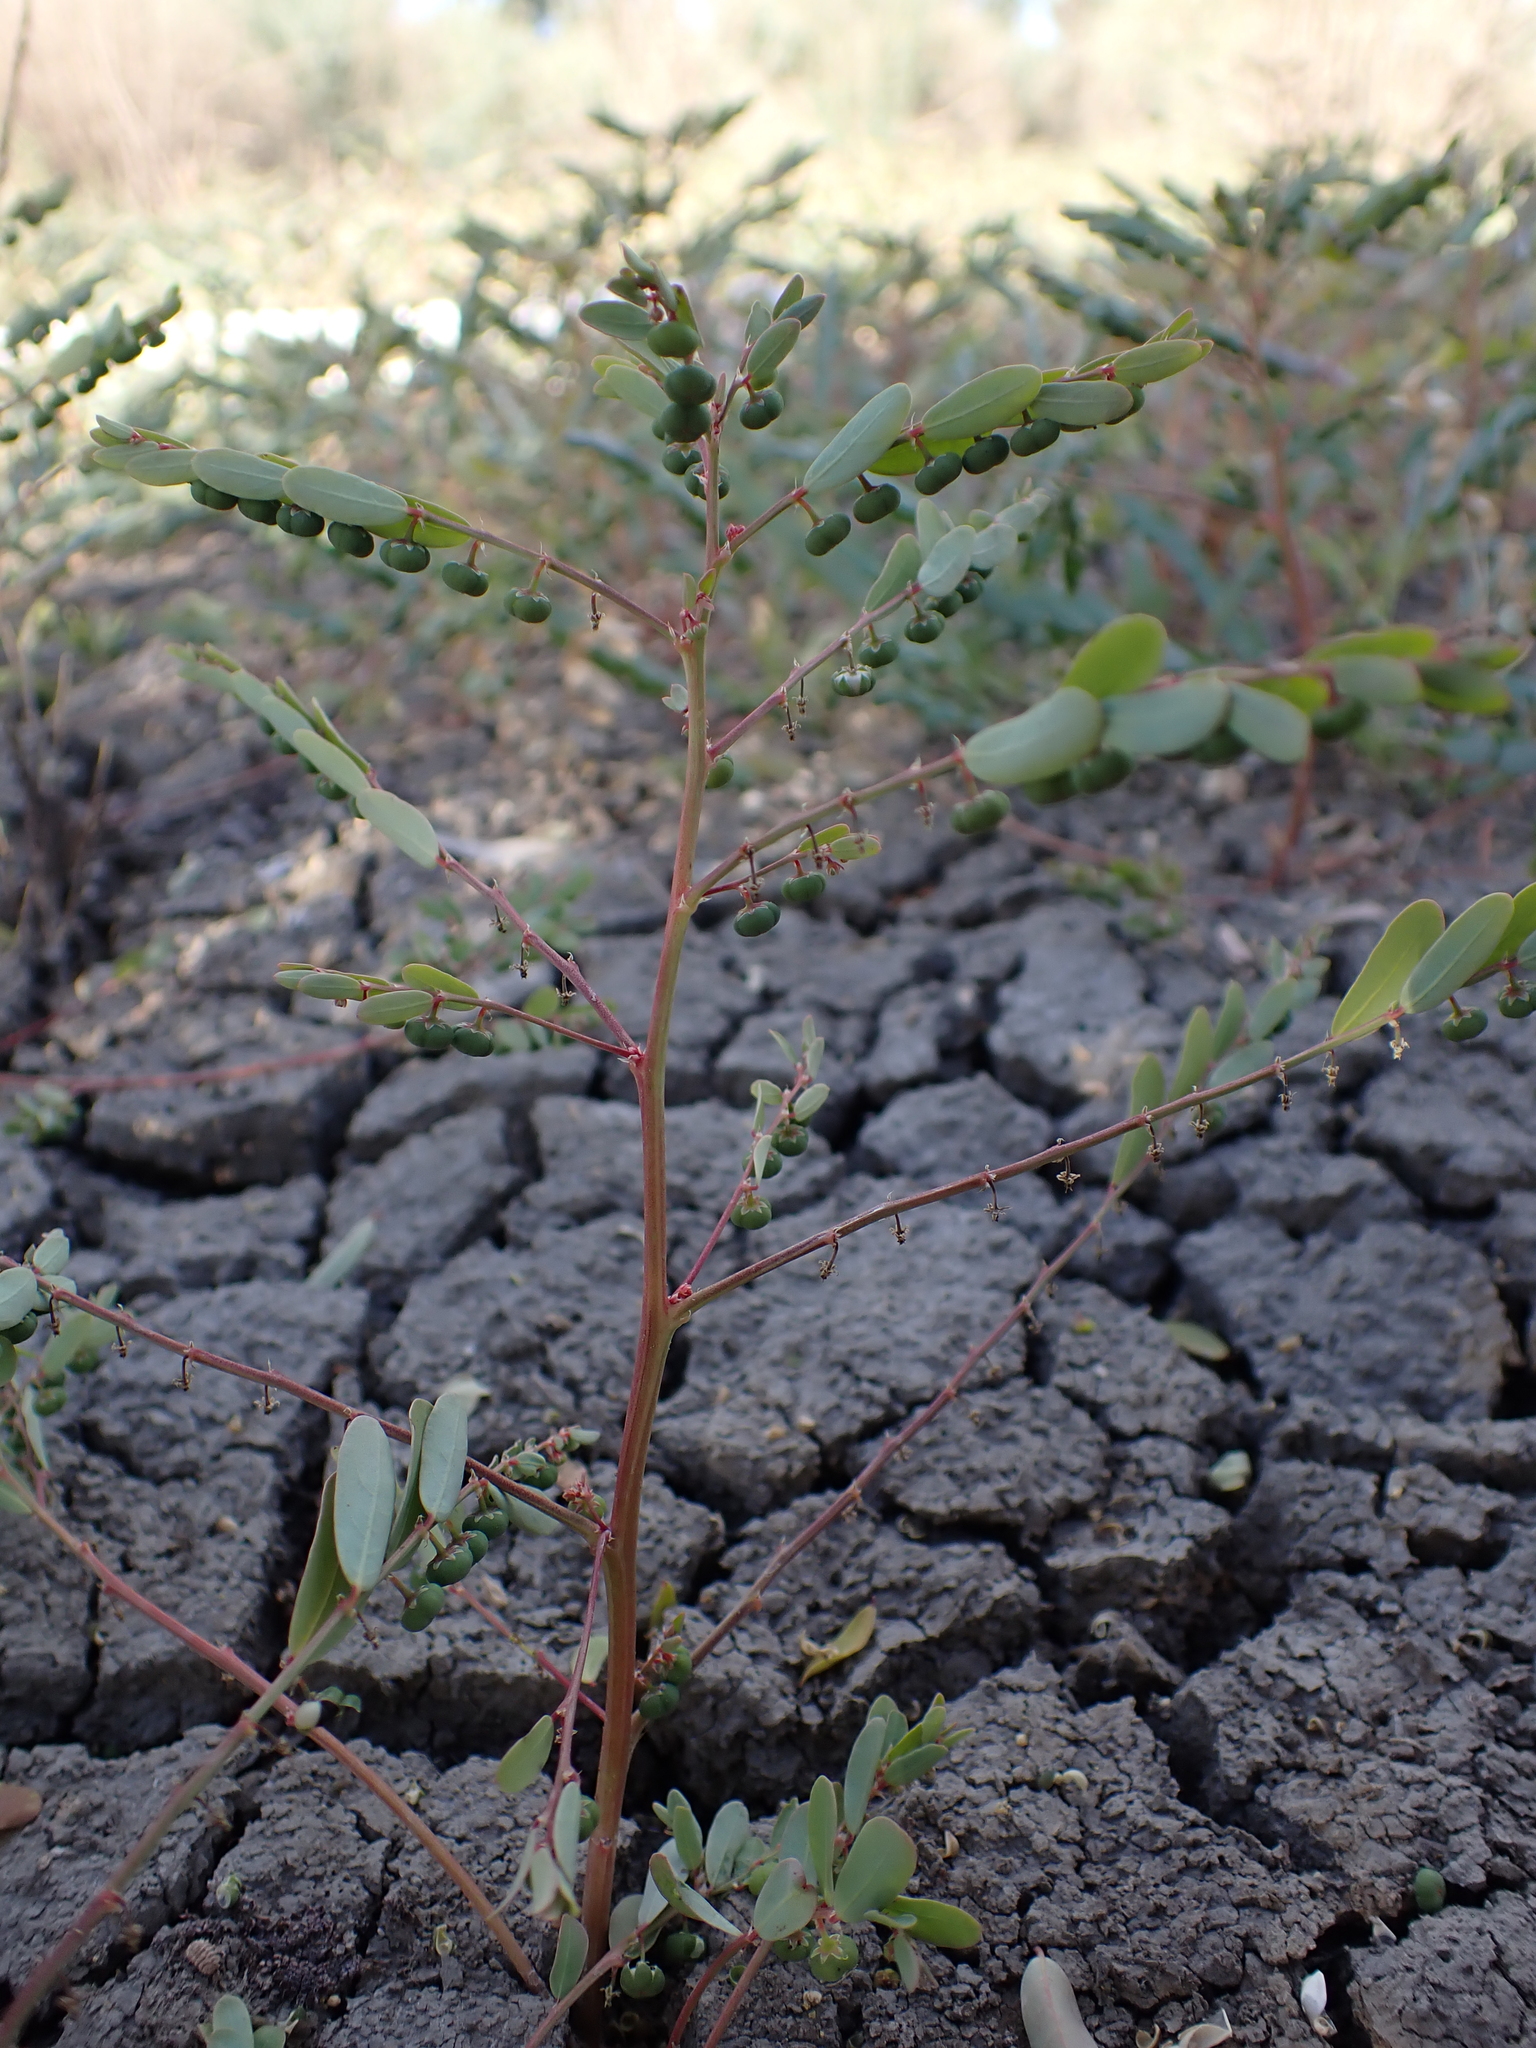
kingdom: Plantae
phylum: Tracheophyta
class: Magnoliopsida
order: Malpighiales
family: Phyllanthaceae
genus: Phyllanthus
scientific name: Phyllanthus lacunarius
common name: Caraweena-clover
